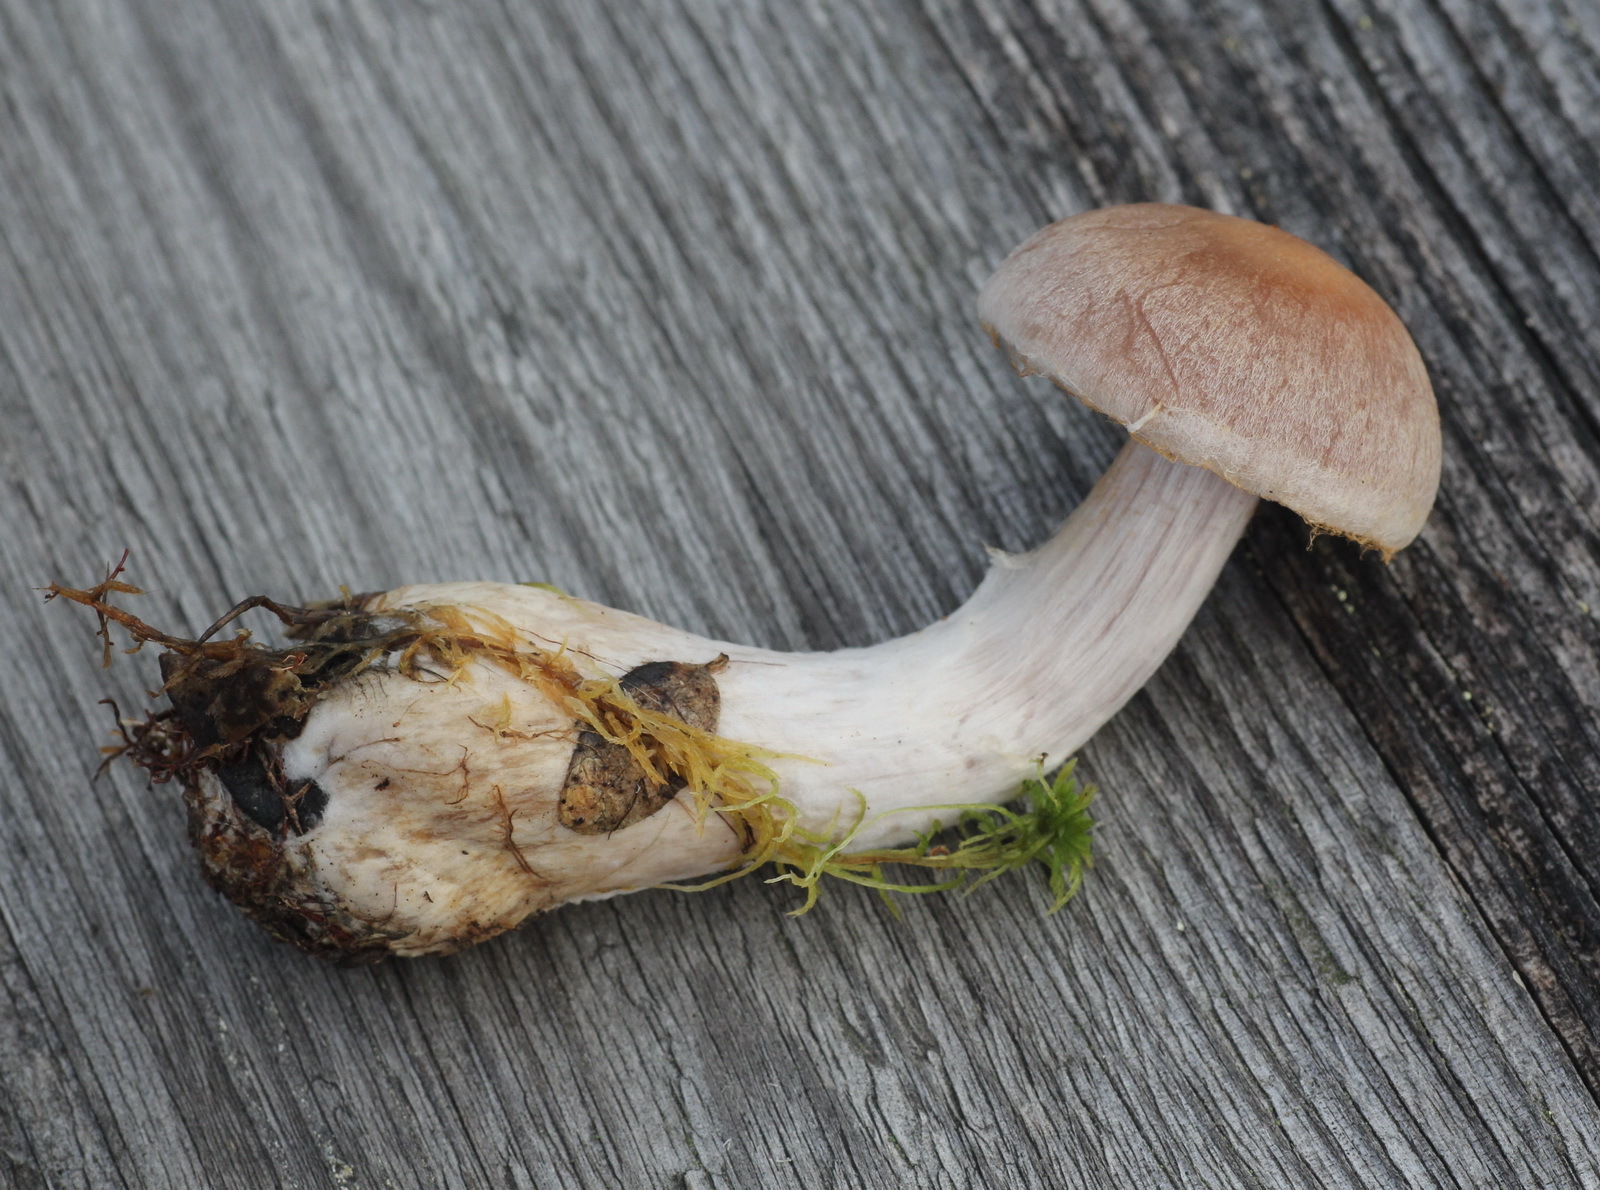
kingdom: Fungi
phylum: Basidiomycota
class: Agaricomycetes
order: Agaricales
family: Cortinariaceae
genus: Cortinarius
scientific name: Cortinarius quarciticus
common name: Quartz webcap
